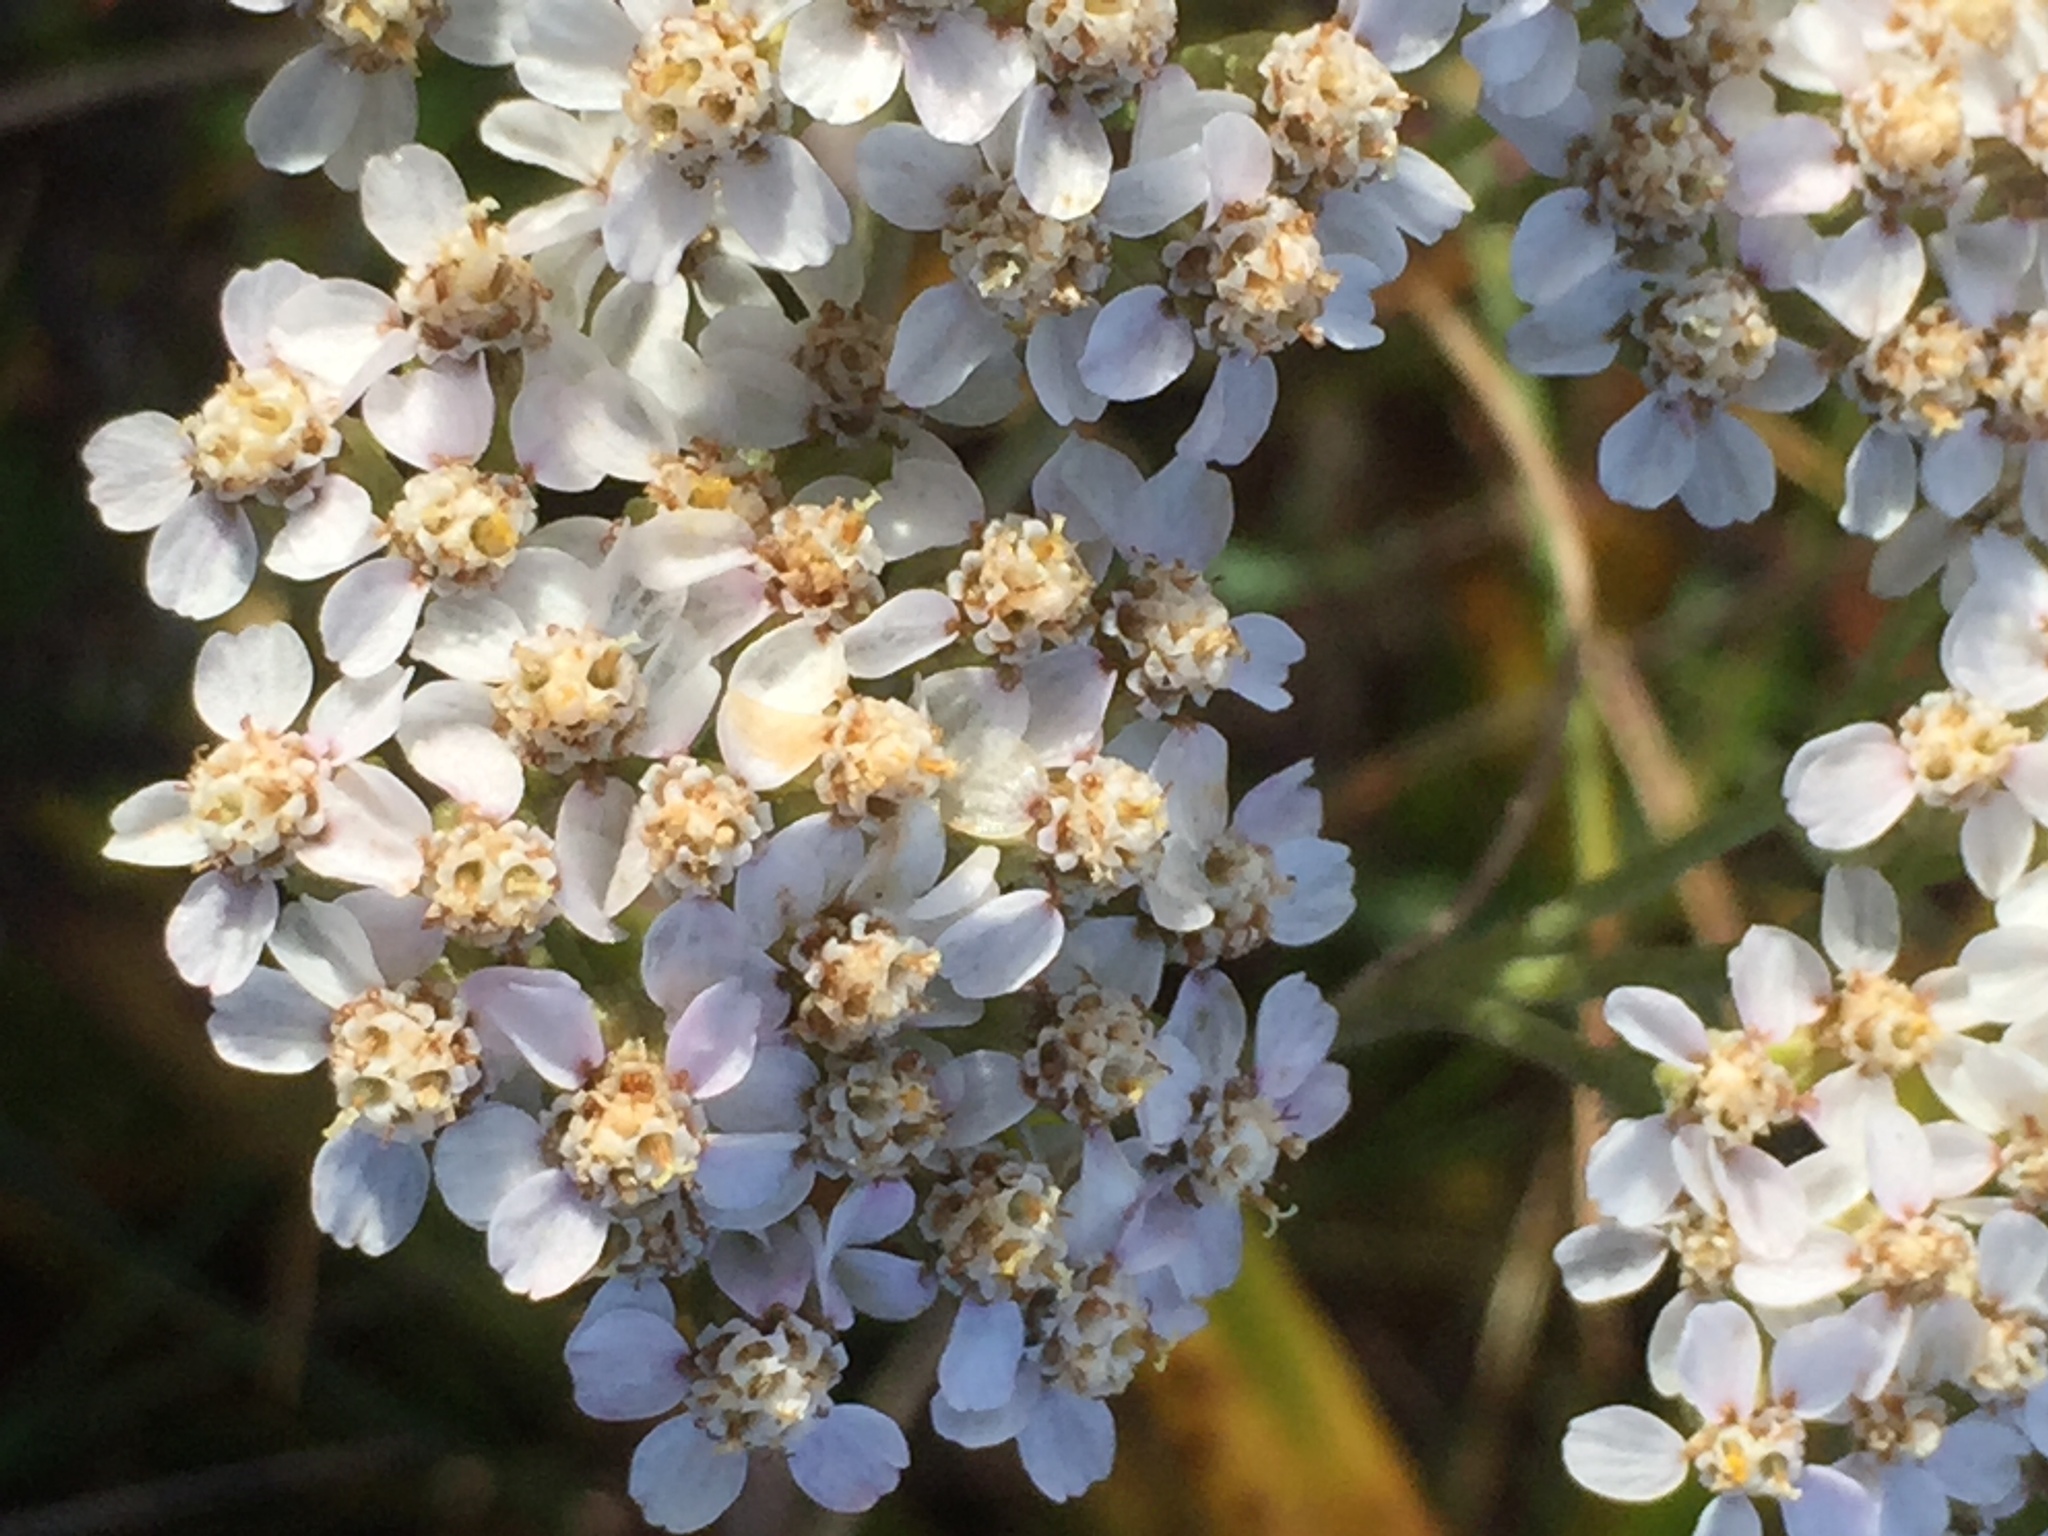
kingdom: Plantae
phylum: Tracheophyta
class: Magnoliopsida
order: Asterales
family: Asteraceae
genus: Achillea
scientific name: Achillea millefolium
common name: Yarrow
